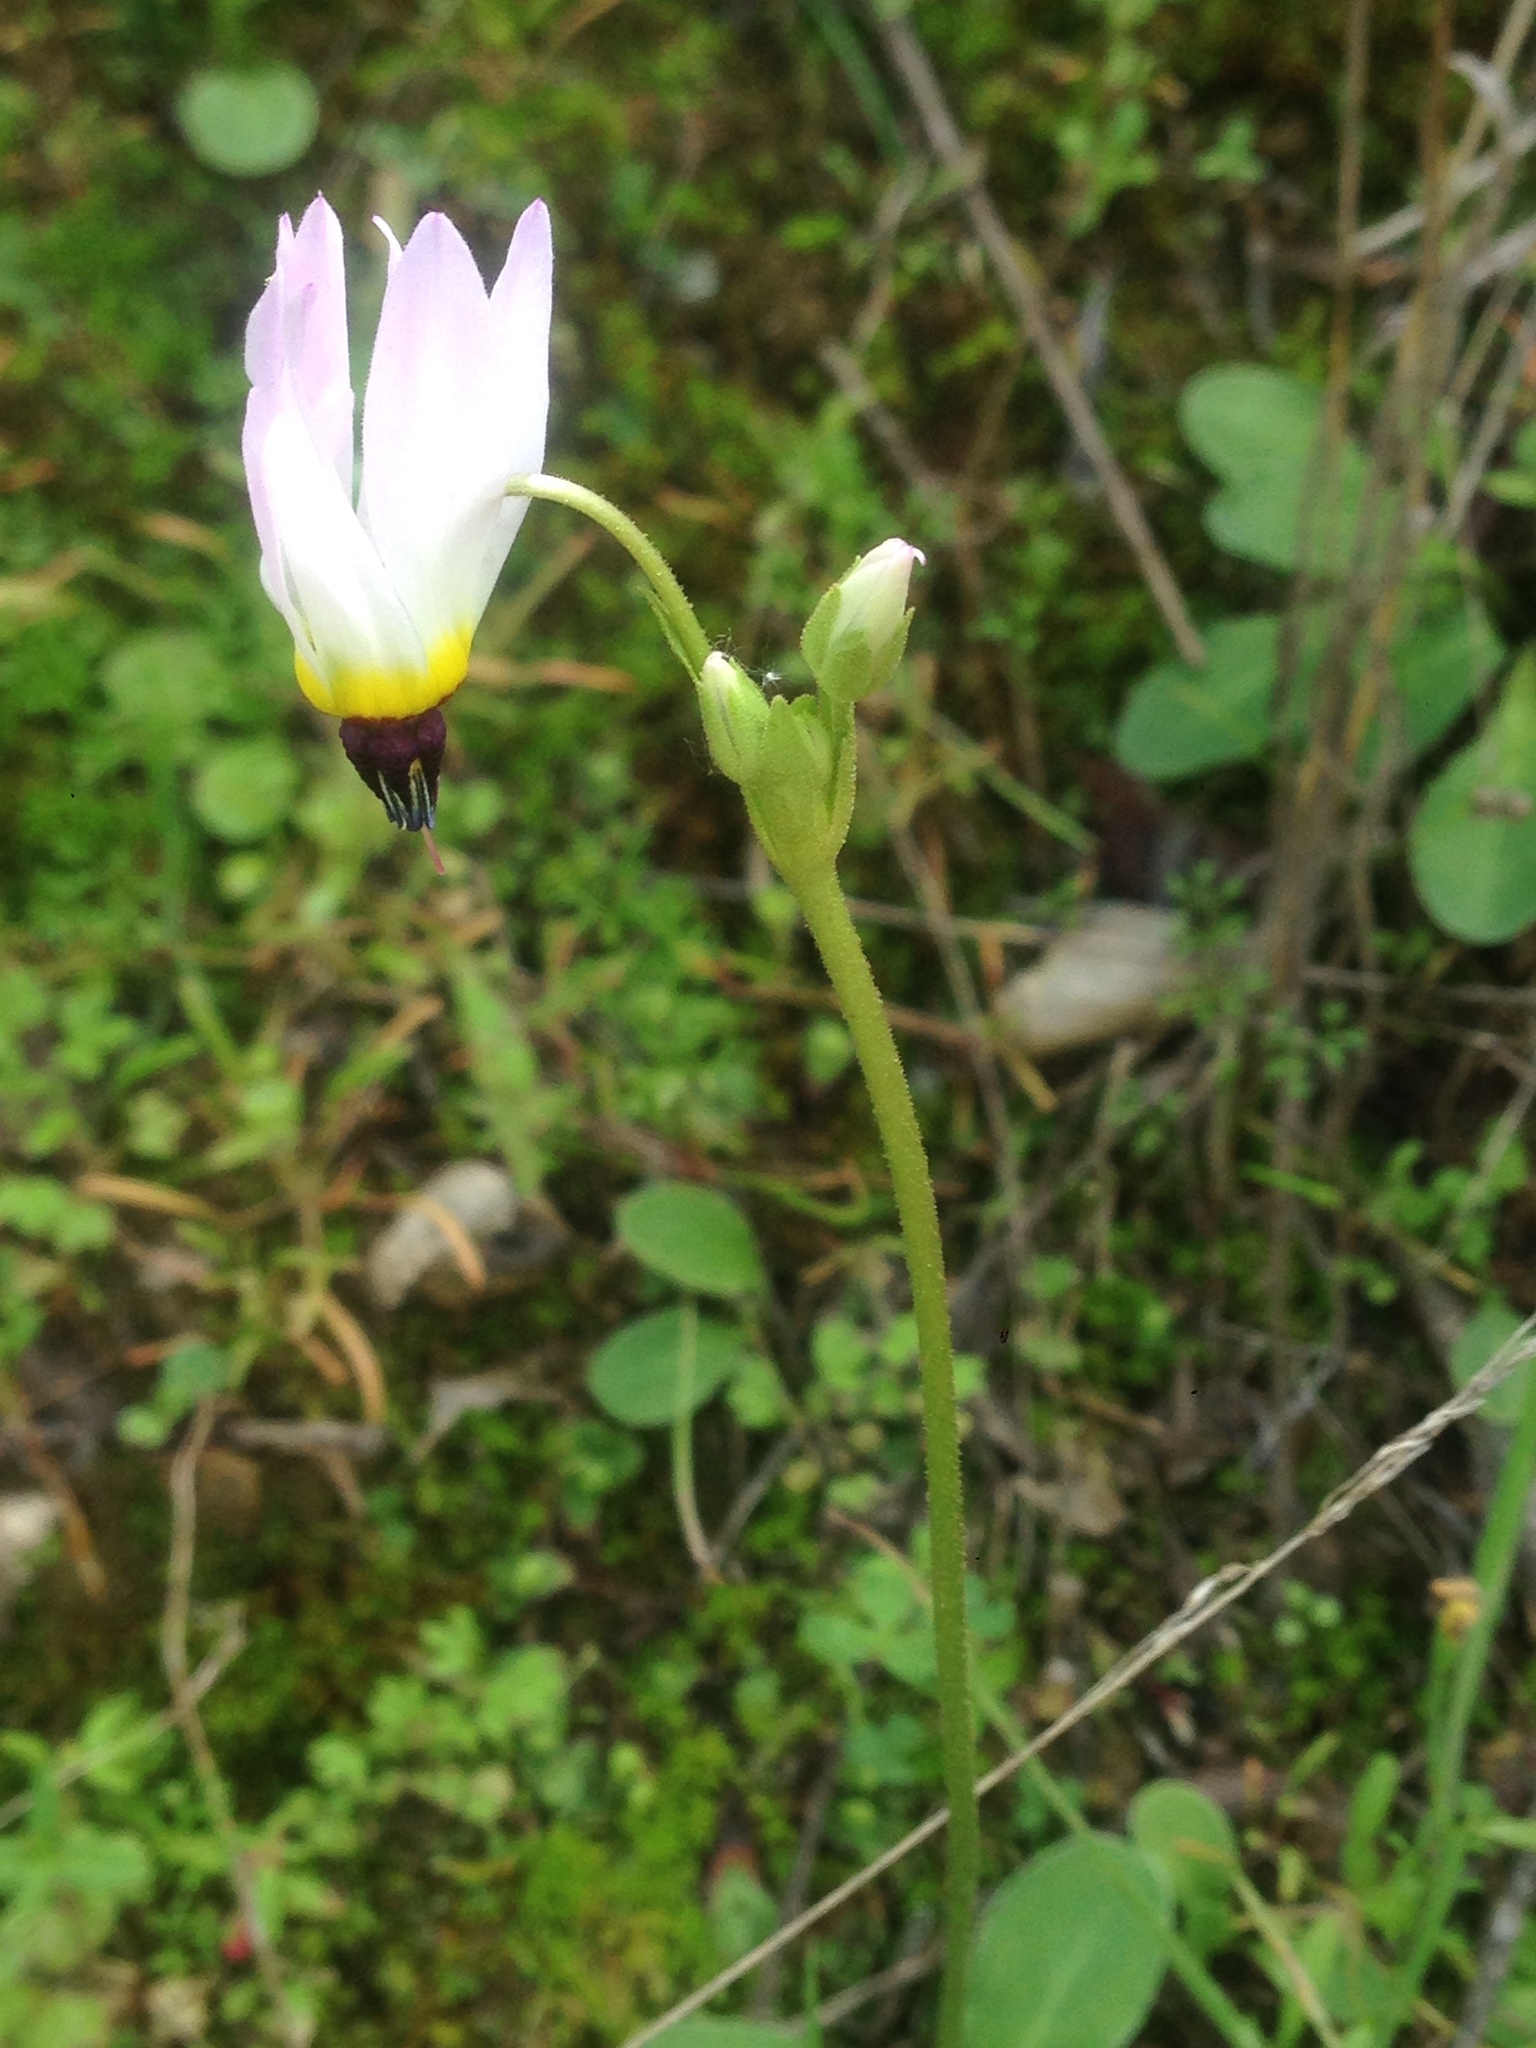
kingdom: Plantae
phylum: Tracheophyta
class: Magnoliopsida
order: Ericales
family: Primulaceae
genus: Dodecatheon
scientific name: Dodecatheon clevelandii
